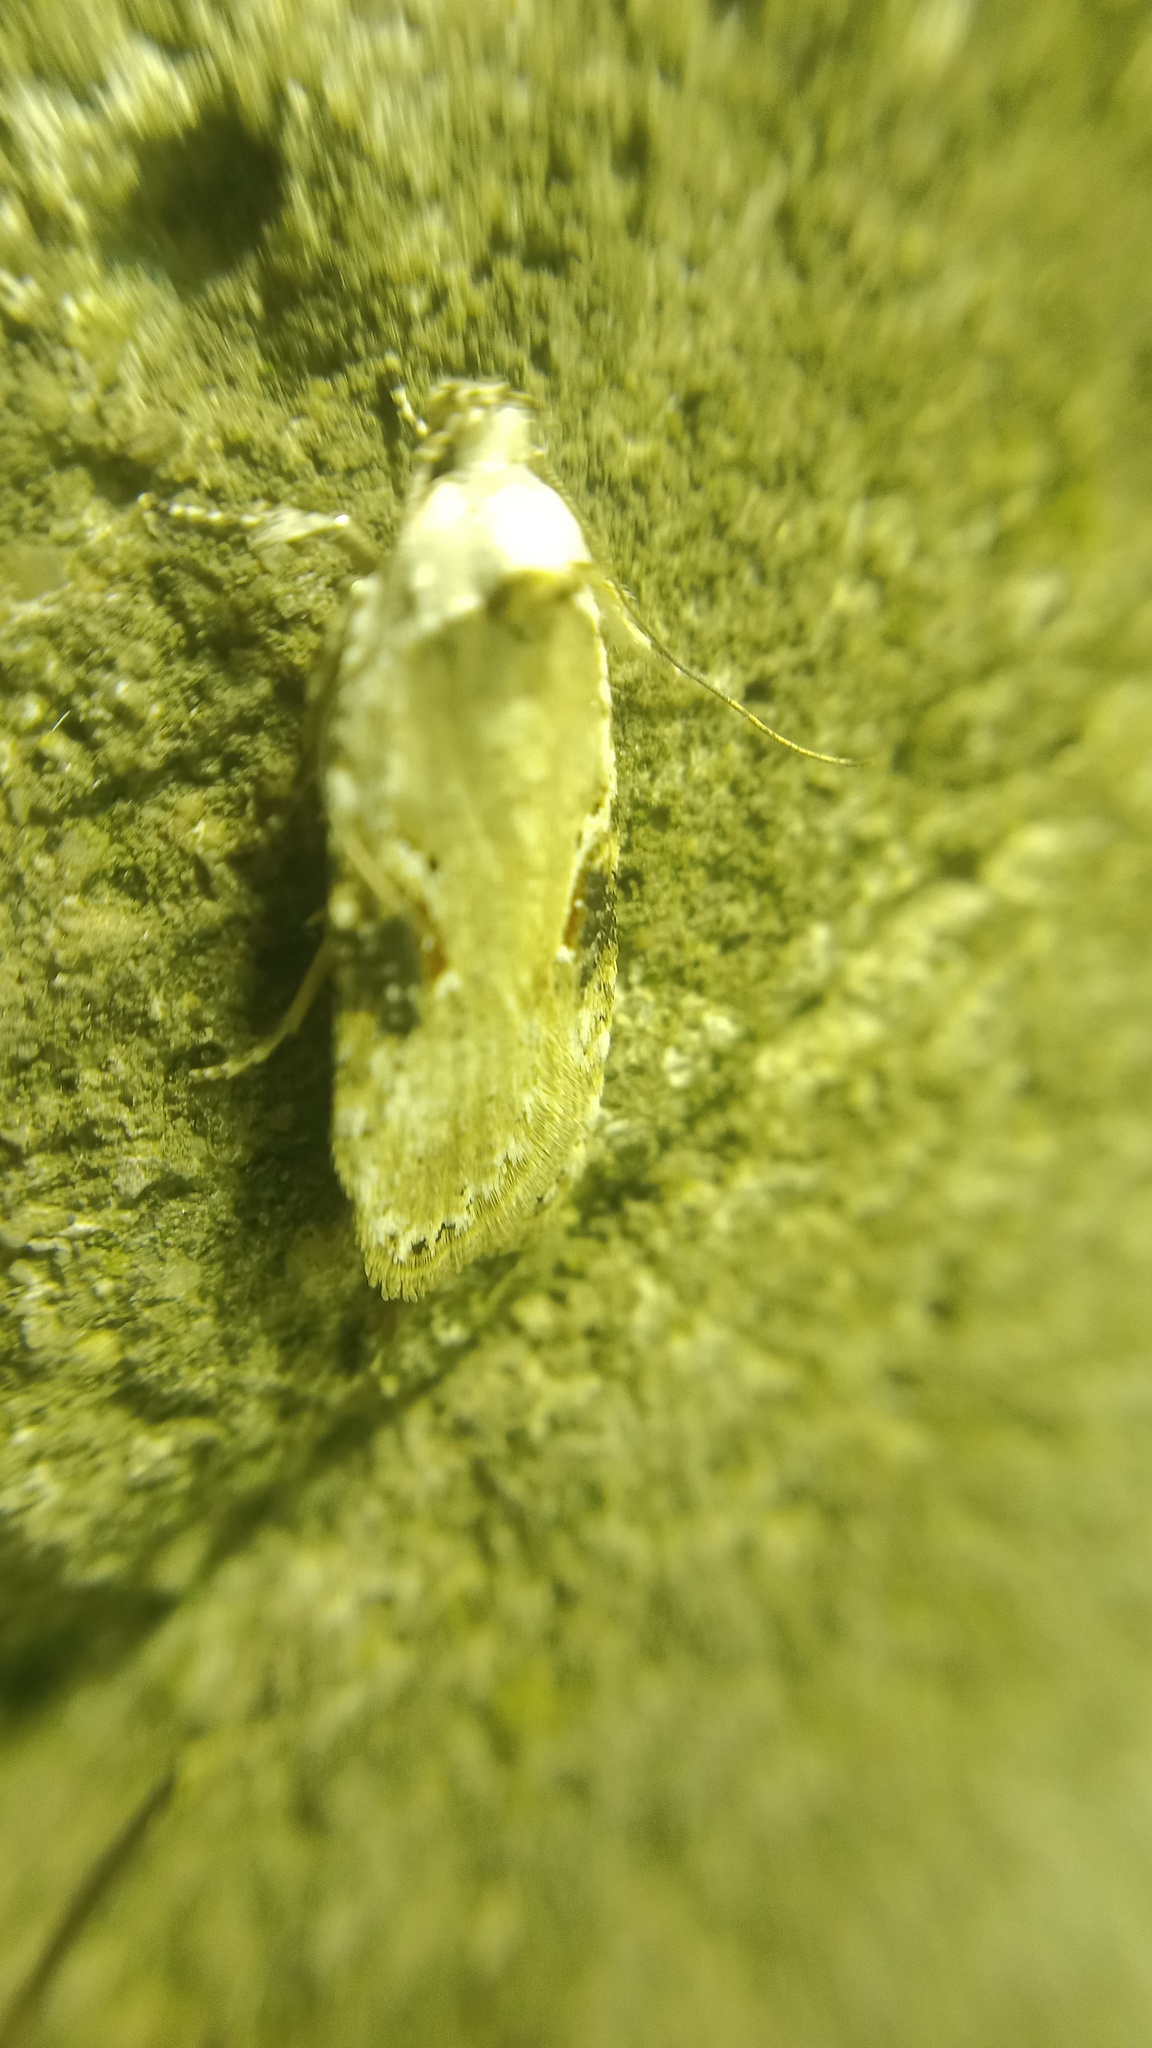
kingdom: Animalia
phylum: Arthropoda
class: Insecta
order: Lepidoptera
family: Depressariidae
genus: Agonopterix
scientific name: Agonopterix alstroemeriana
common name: Moth
